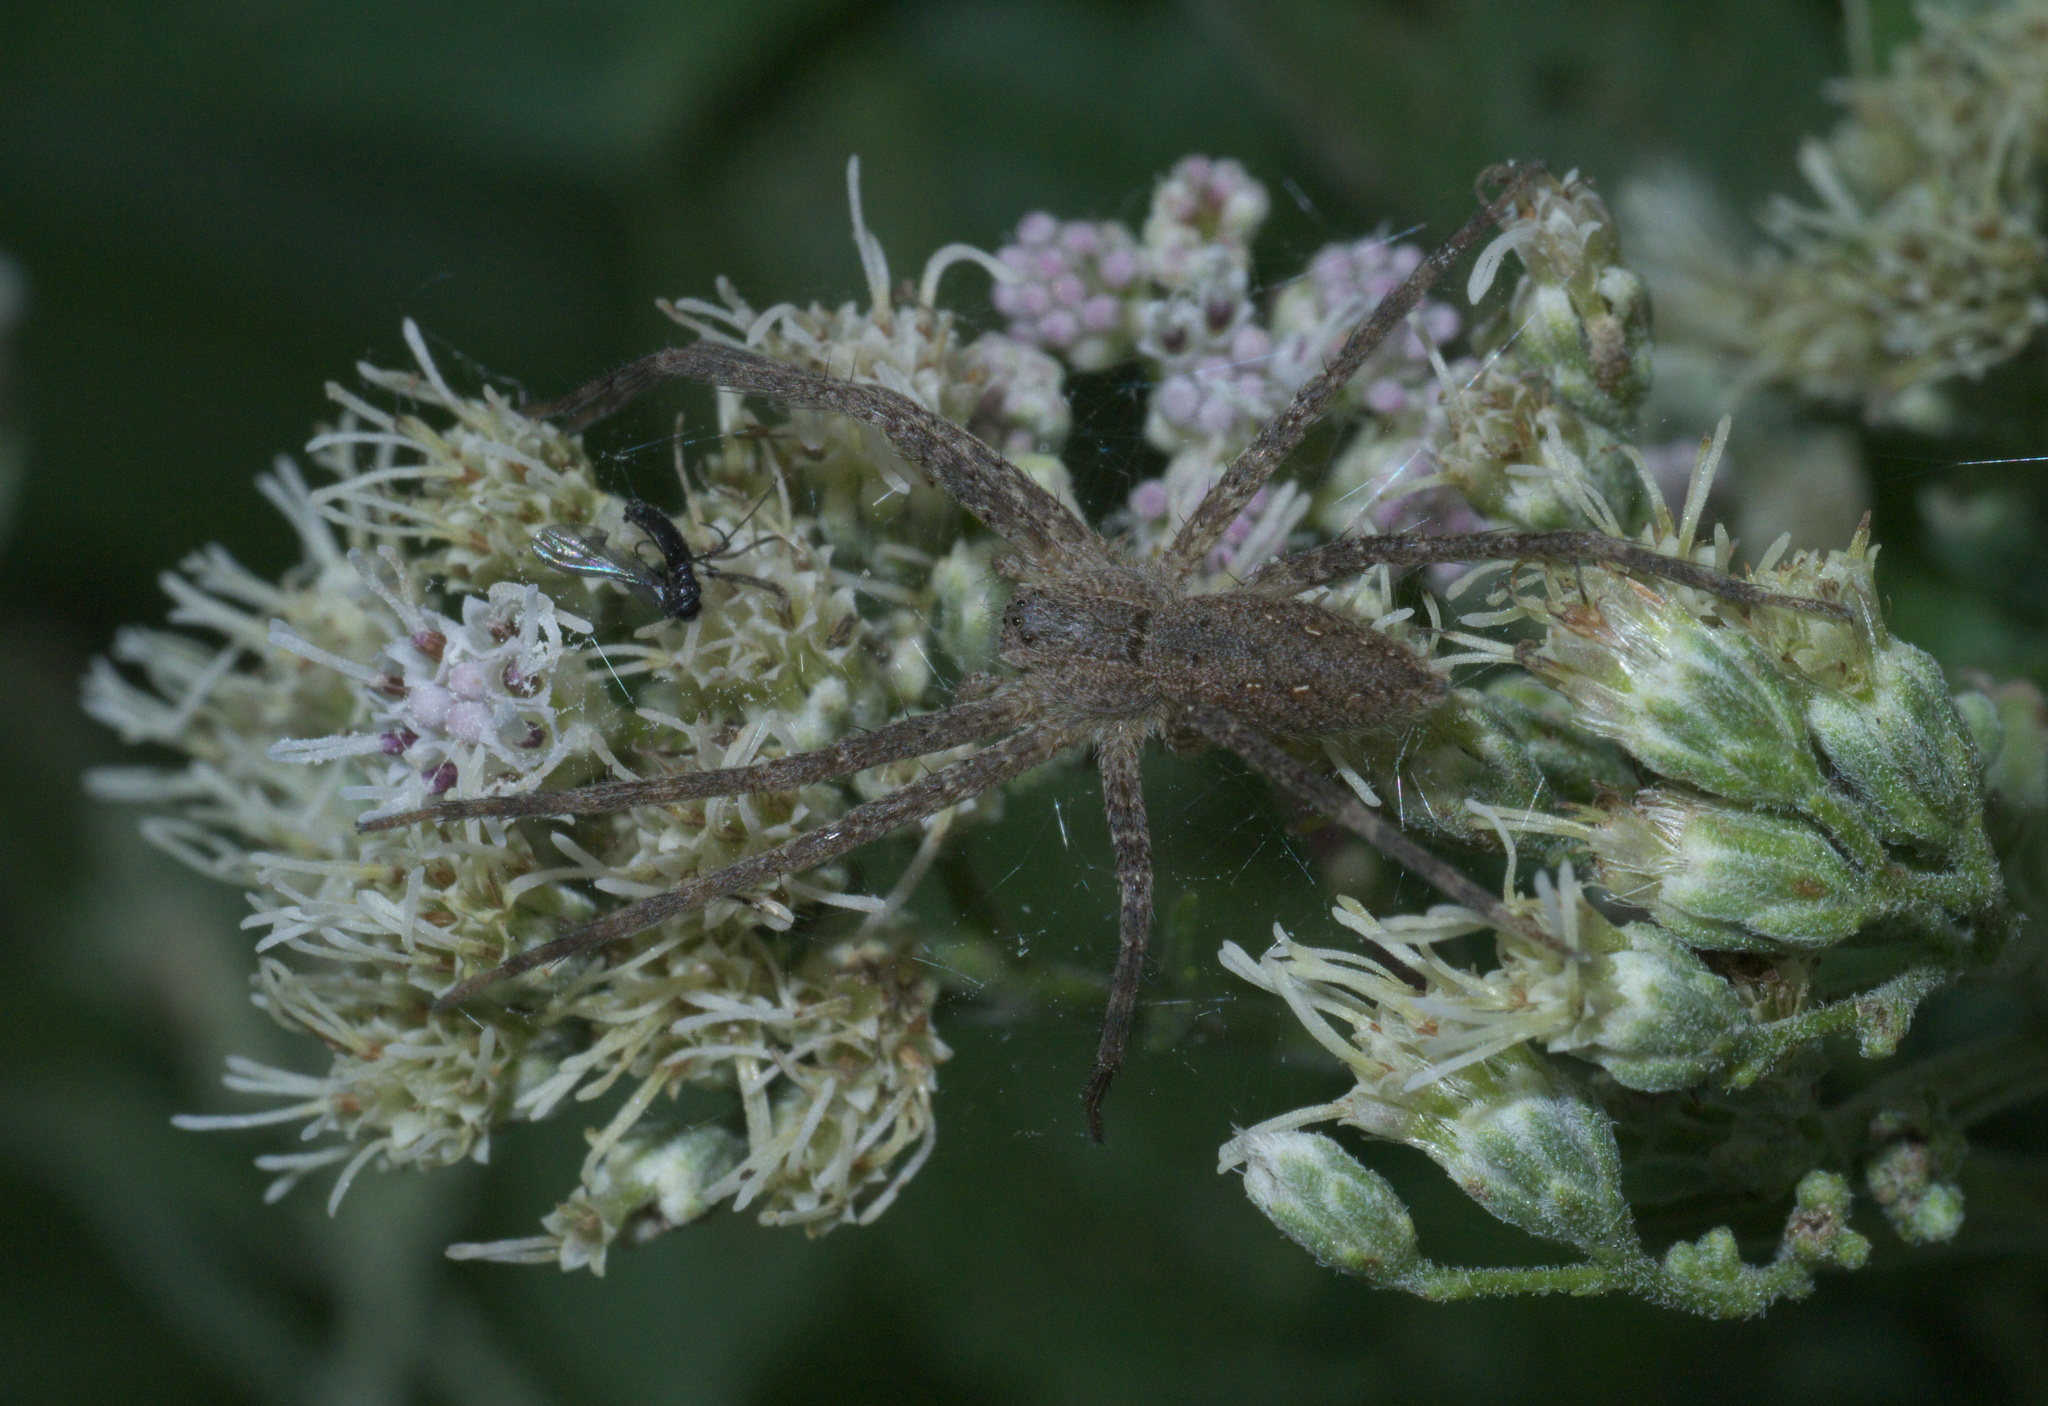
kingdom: Animalia
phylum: Arthropoda
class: Arachnida
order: Araneae
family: Pisauridae
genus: Pisaurina
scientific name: Pisaurina mira
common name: American nursery web spider
